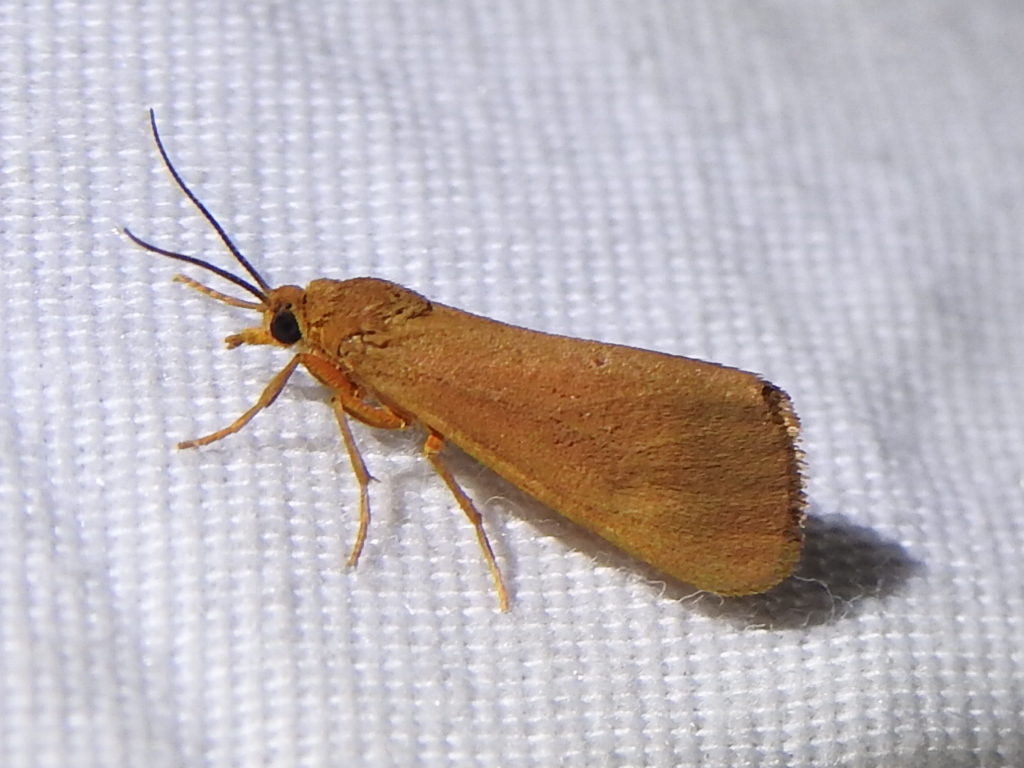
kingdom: Animalia
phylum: Arthropoda
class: Insecta
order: Lepidoptera
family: Erebidae
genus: Virbia
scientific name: Virbia aurantiaca
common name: Orange virbia moth
